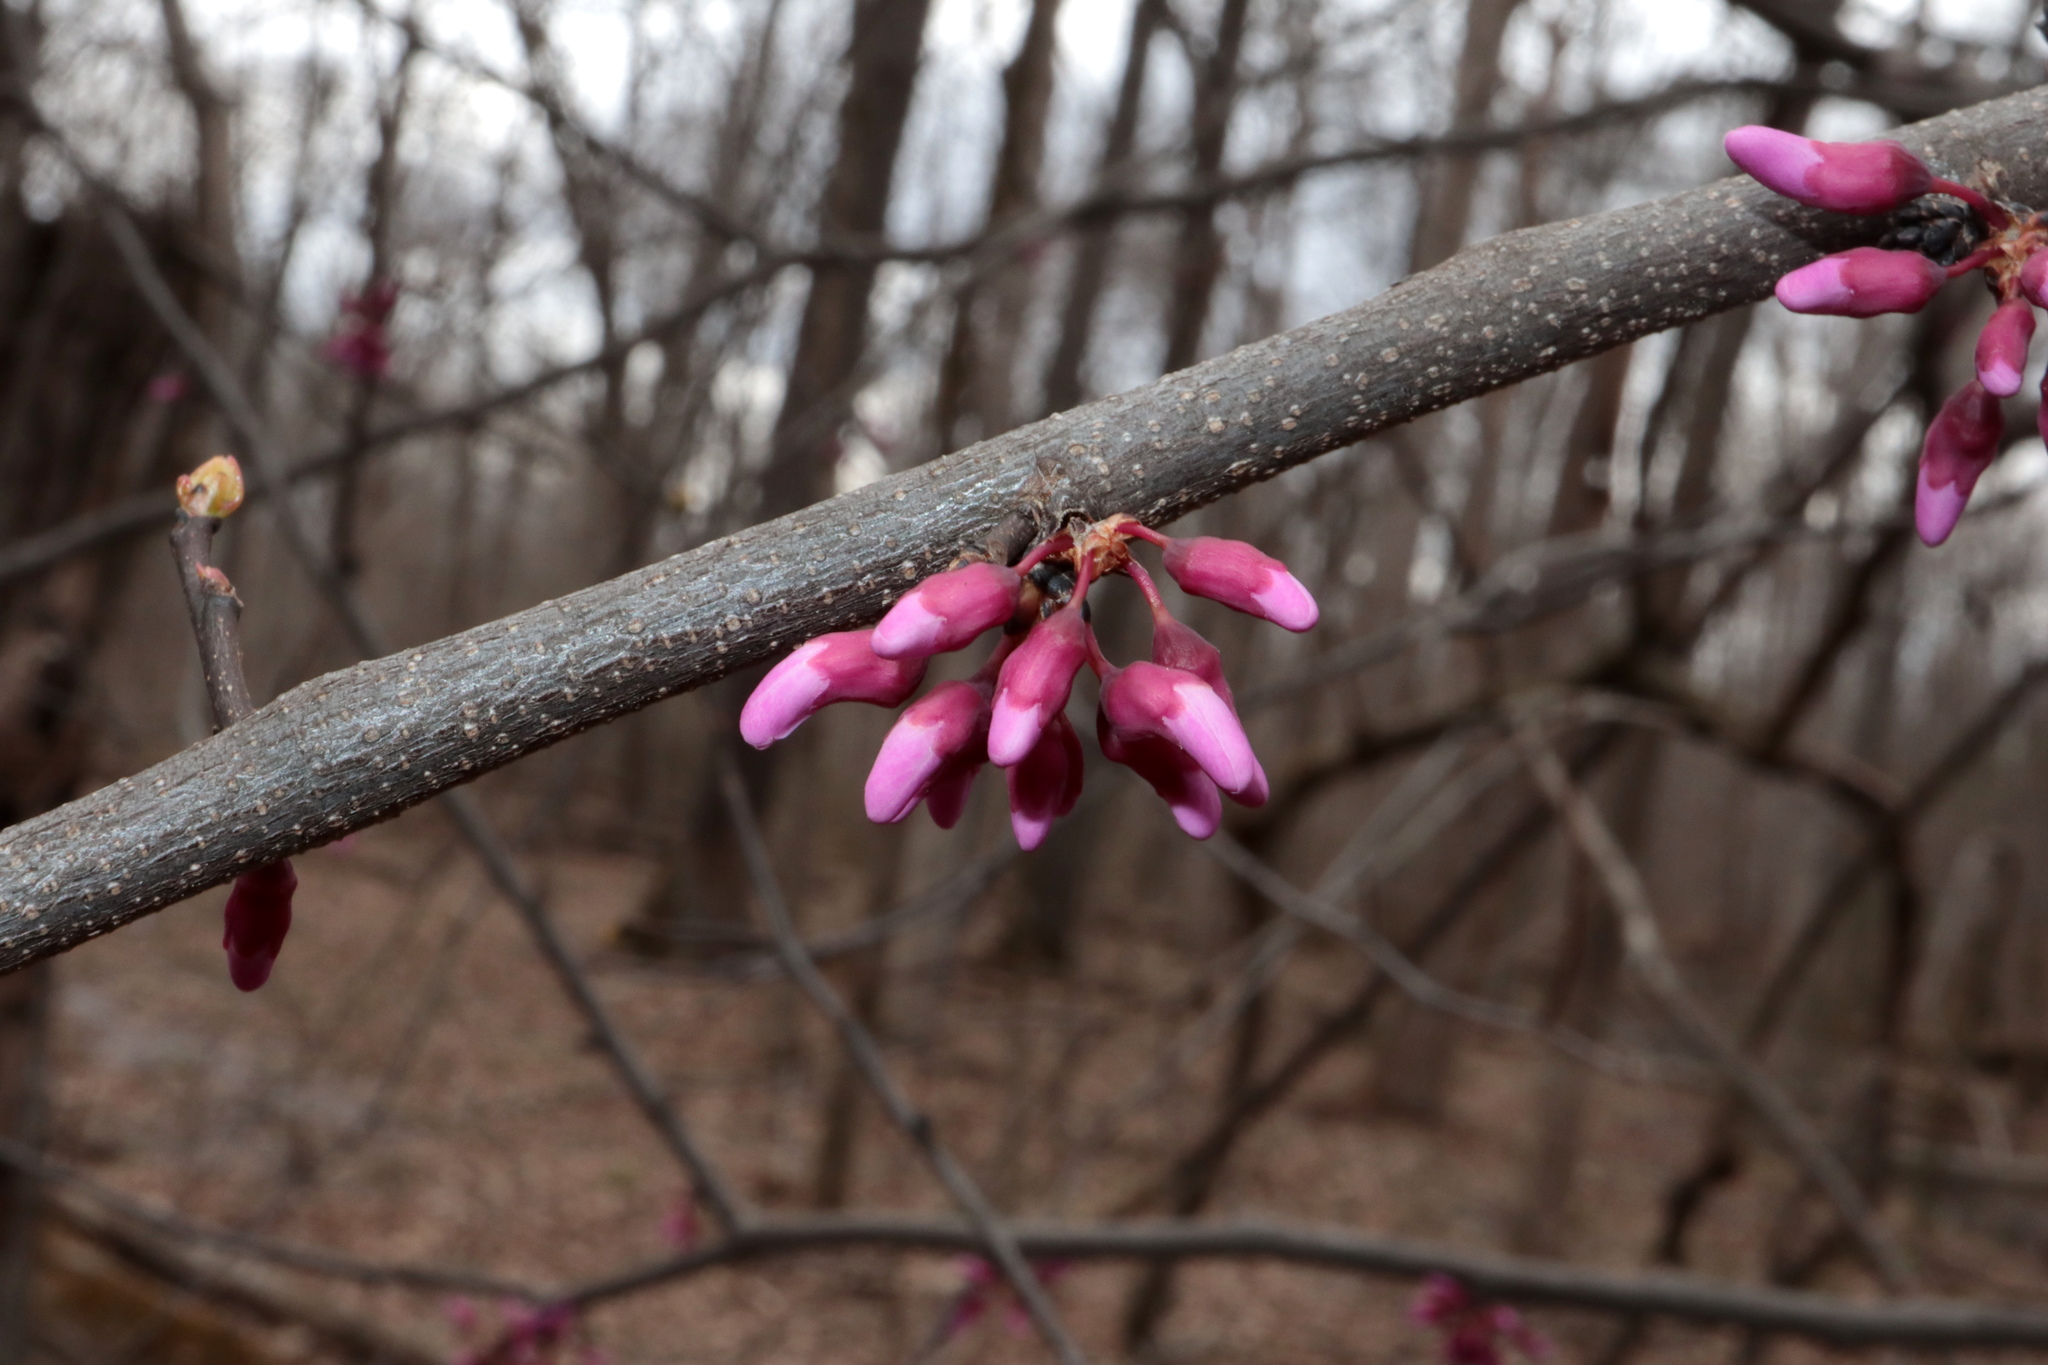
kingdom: Plantae
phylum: Tracheophyta
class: Magnoliopsida
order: Fabales
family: Fabaceae
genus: Cercis
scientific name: Cercis canadensis
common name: Eastern redbud
